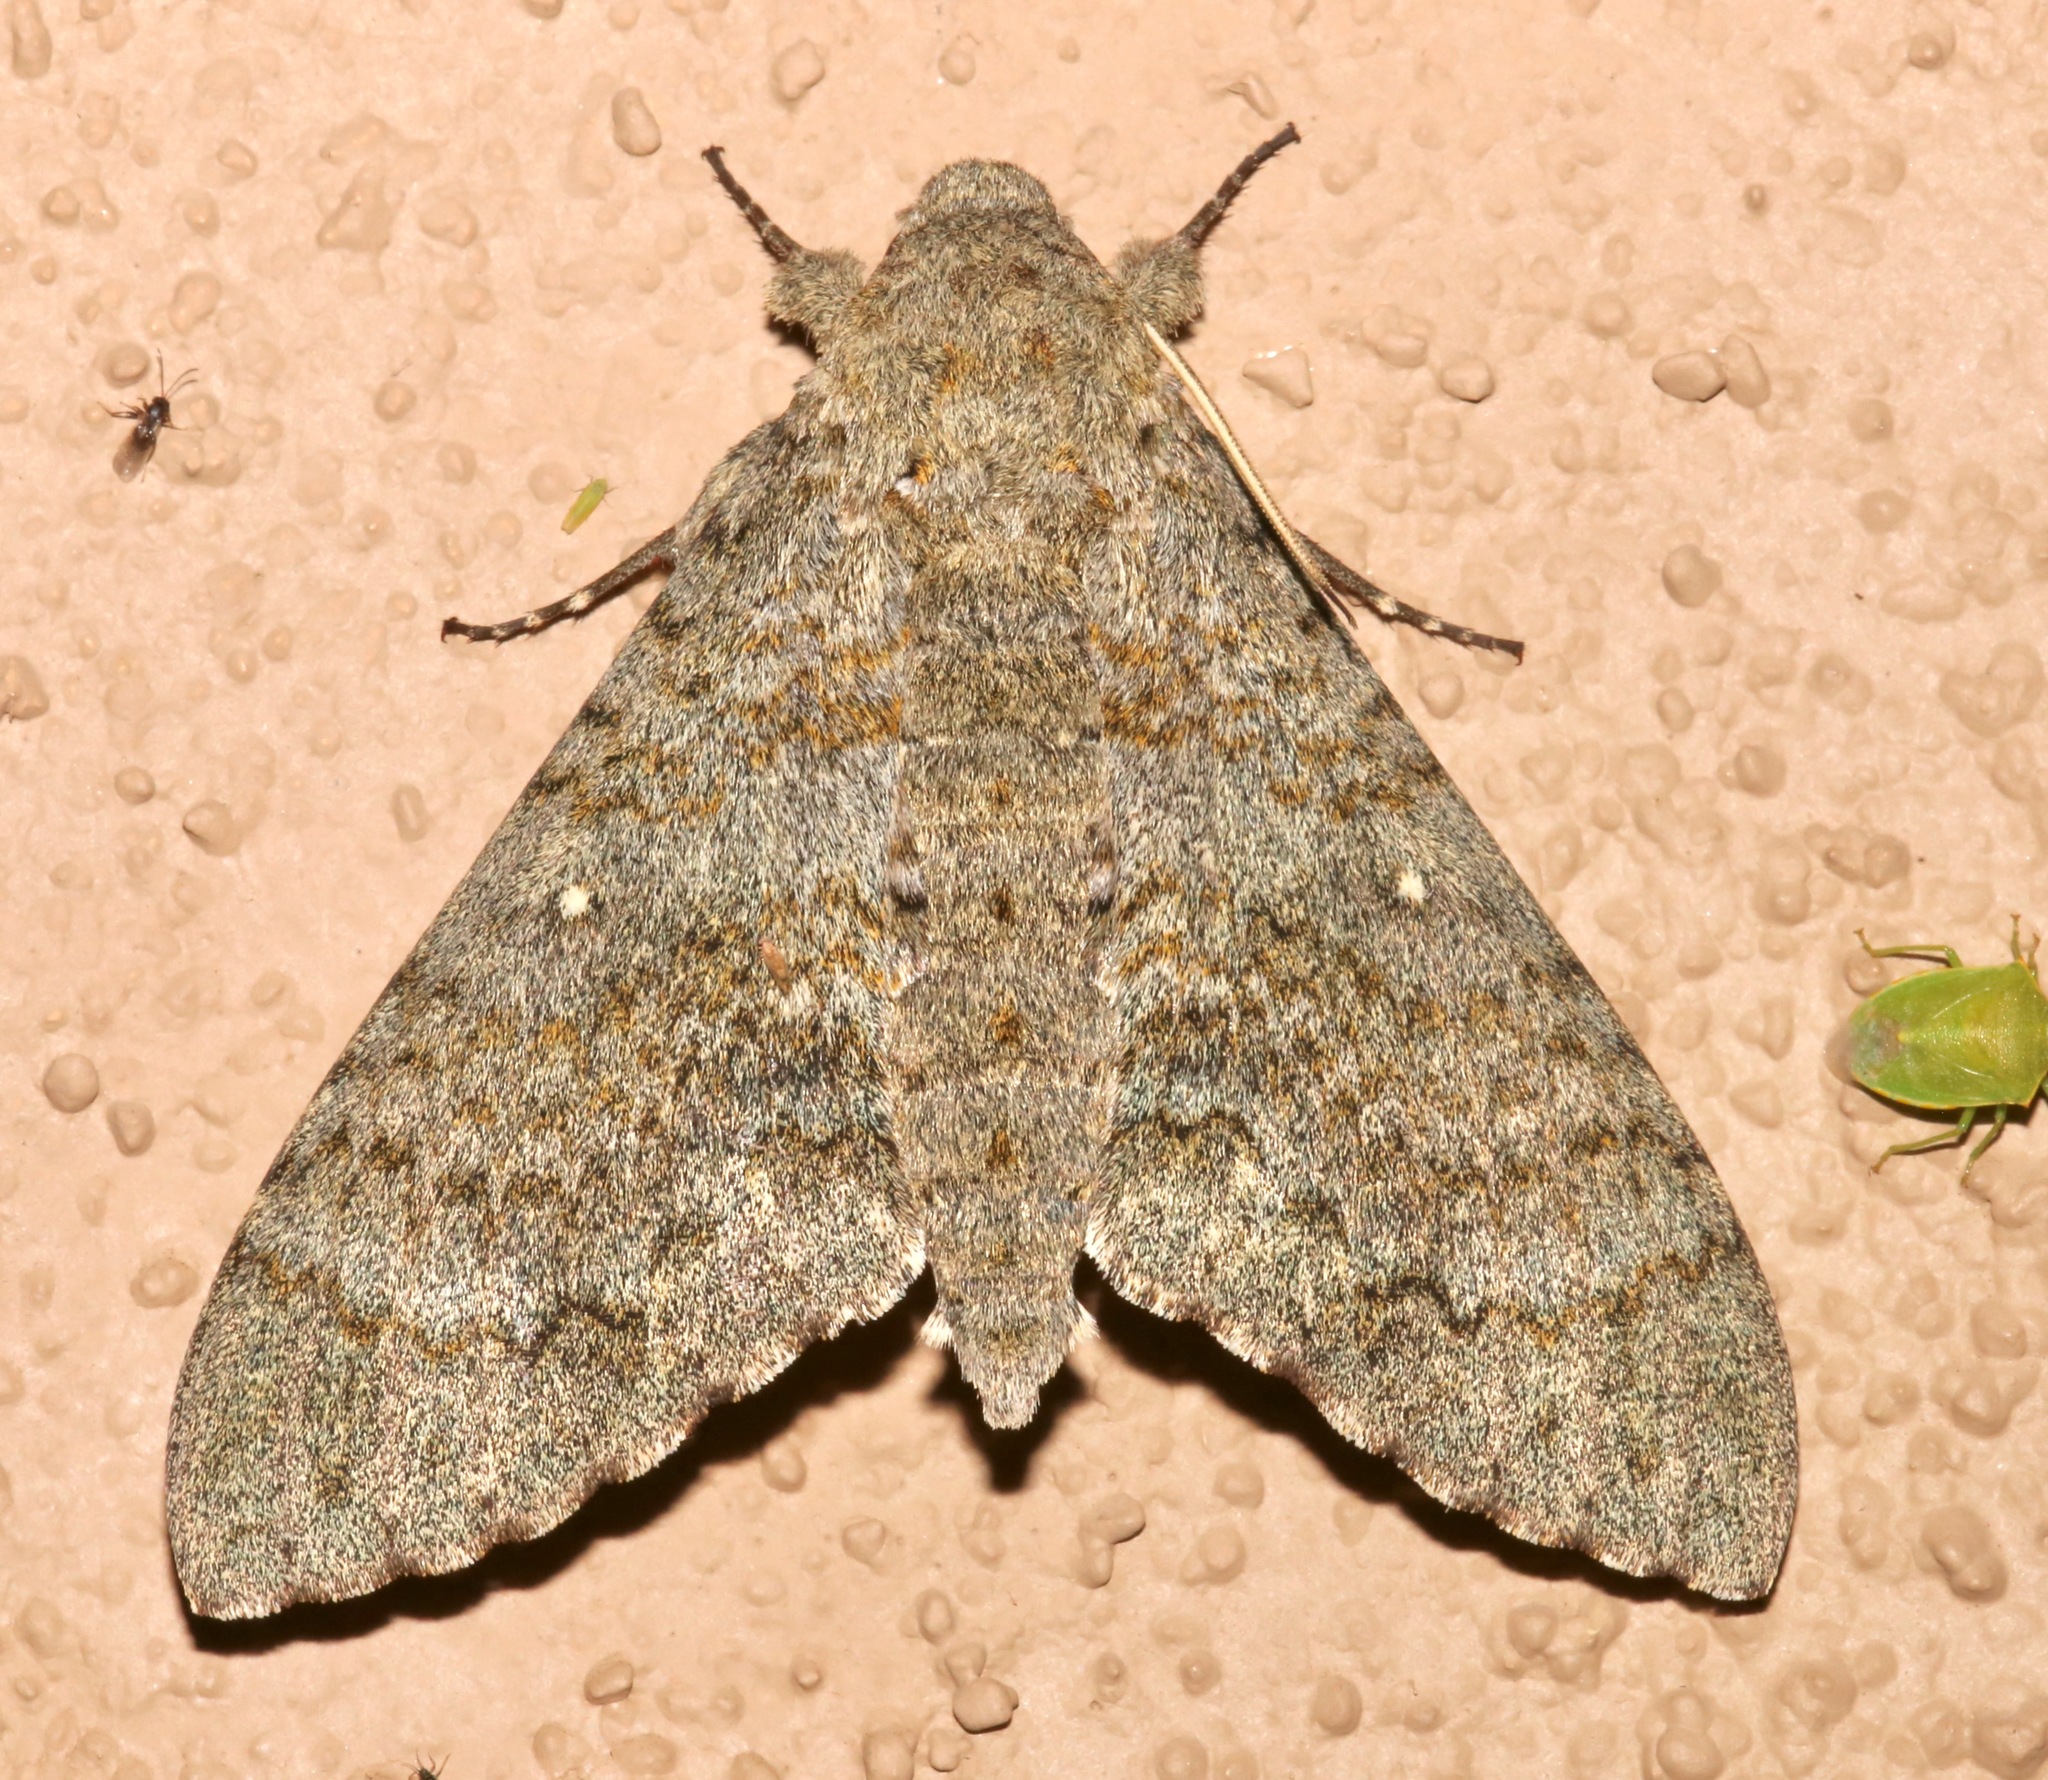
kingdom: Animalia
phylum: Arthropoda
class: Insecta
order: Lepidoptera
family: Sphingidae
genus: Manduca
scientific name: Manduca muscosa
